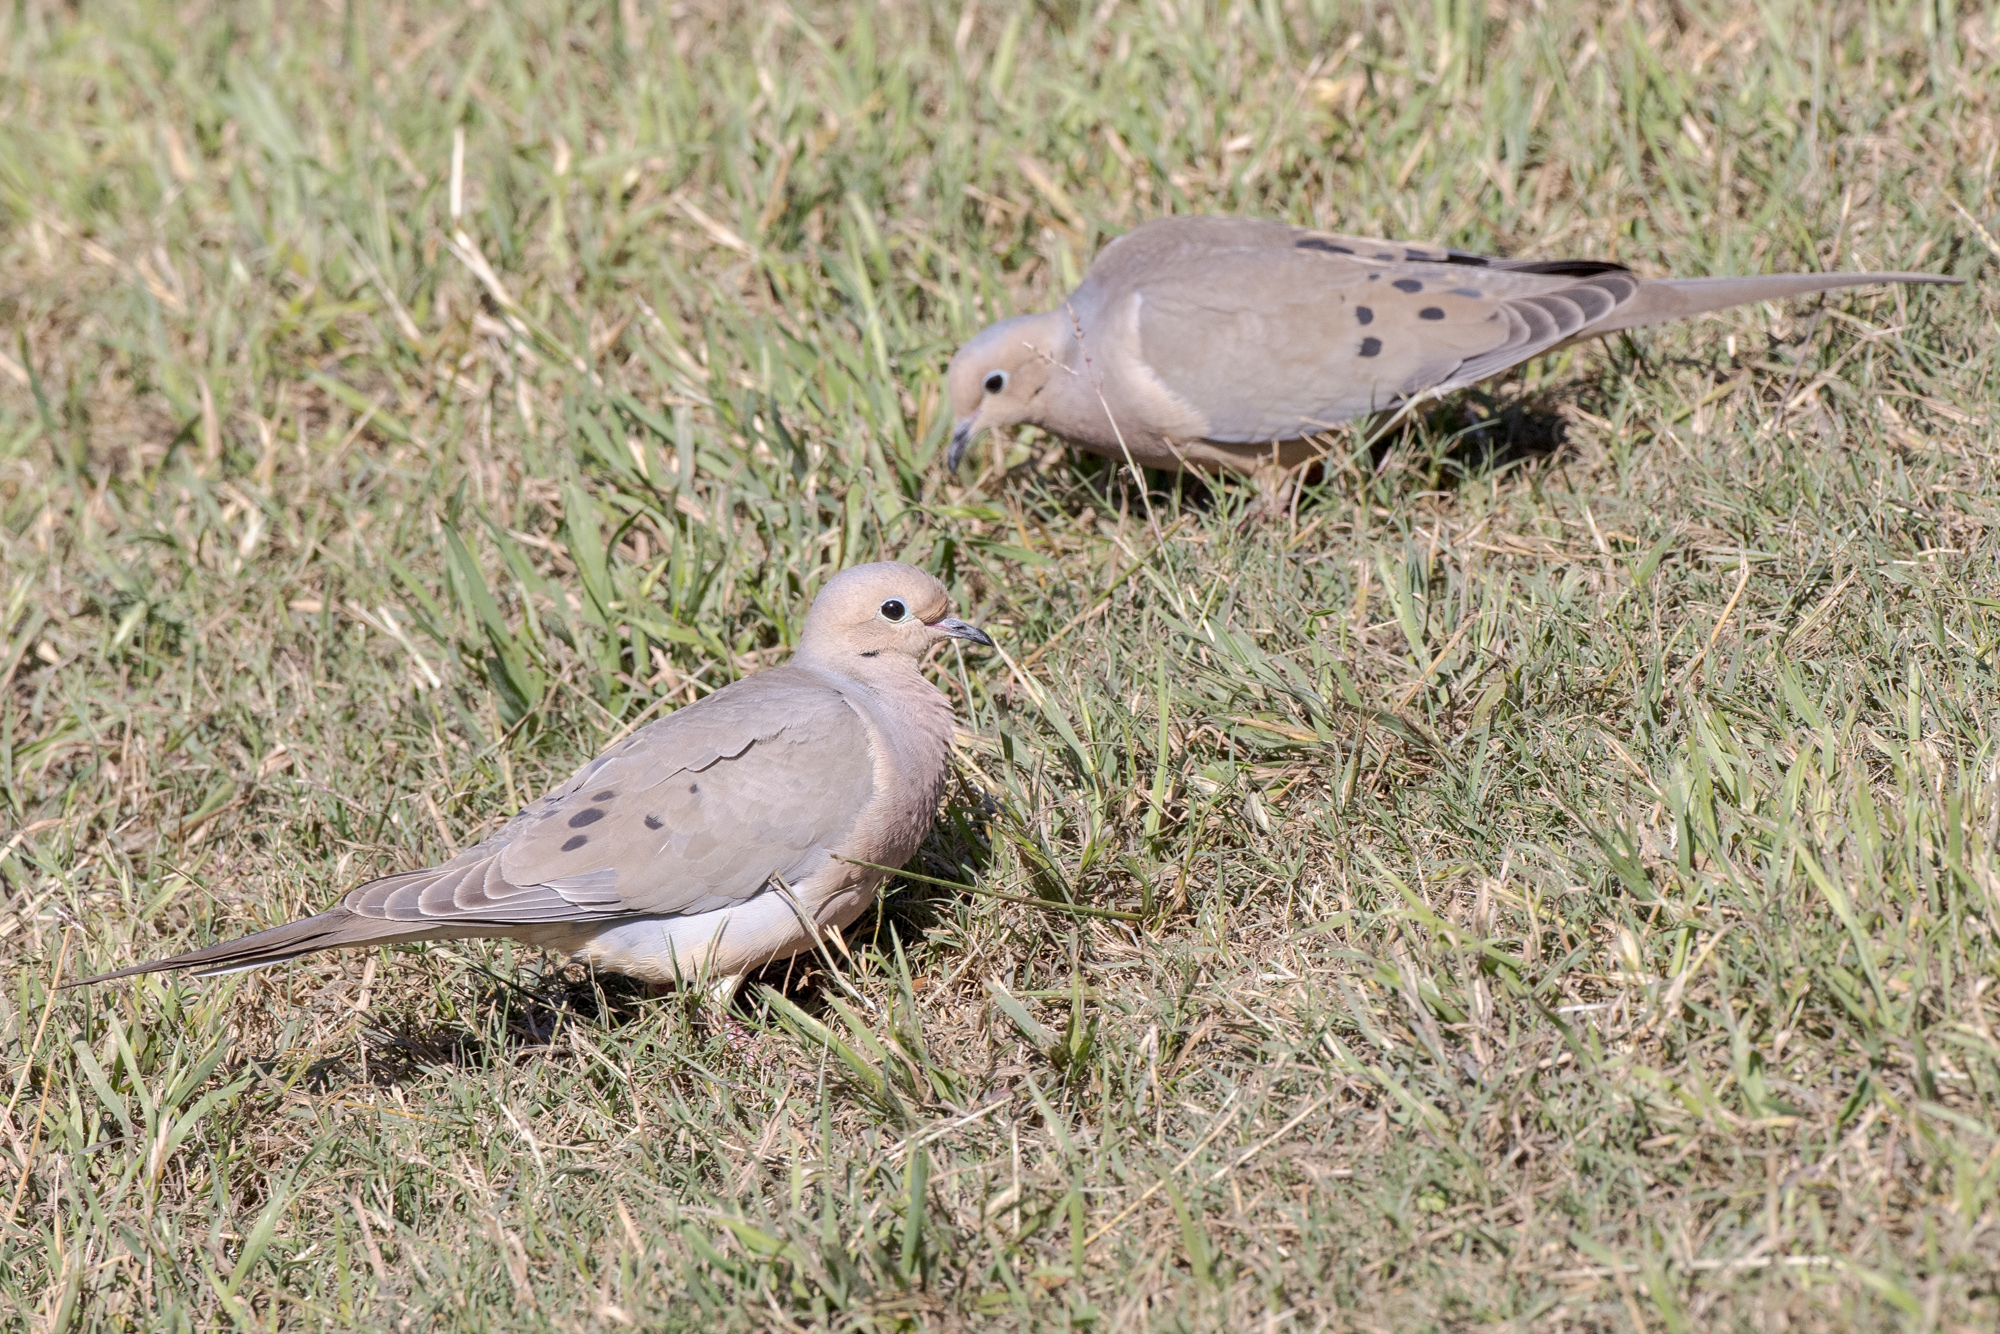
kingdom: Animalia
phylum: Chordata
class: Aves
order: Columbiformes
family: Columbidae
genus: Zenaida
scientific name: Zenaida macroura
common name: Mourning dove
